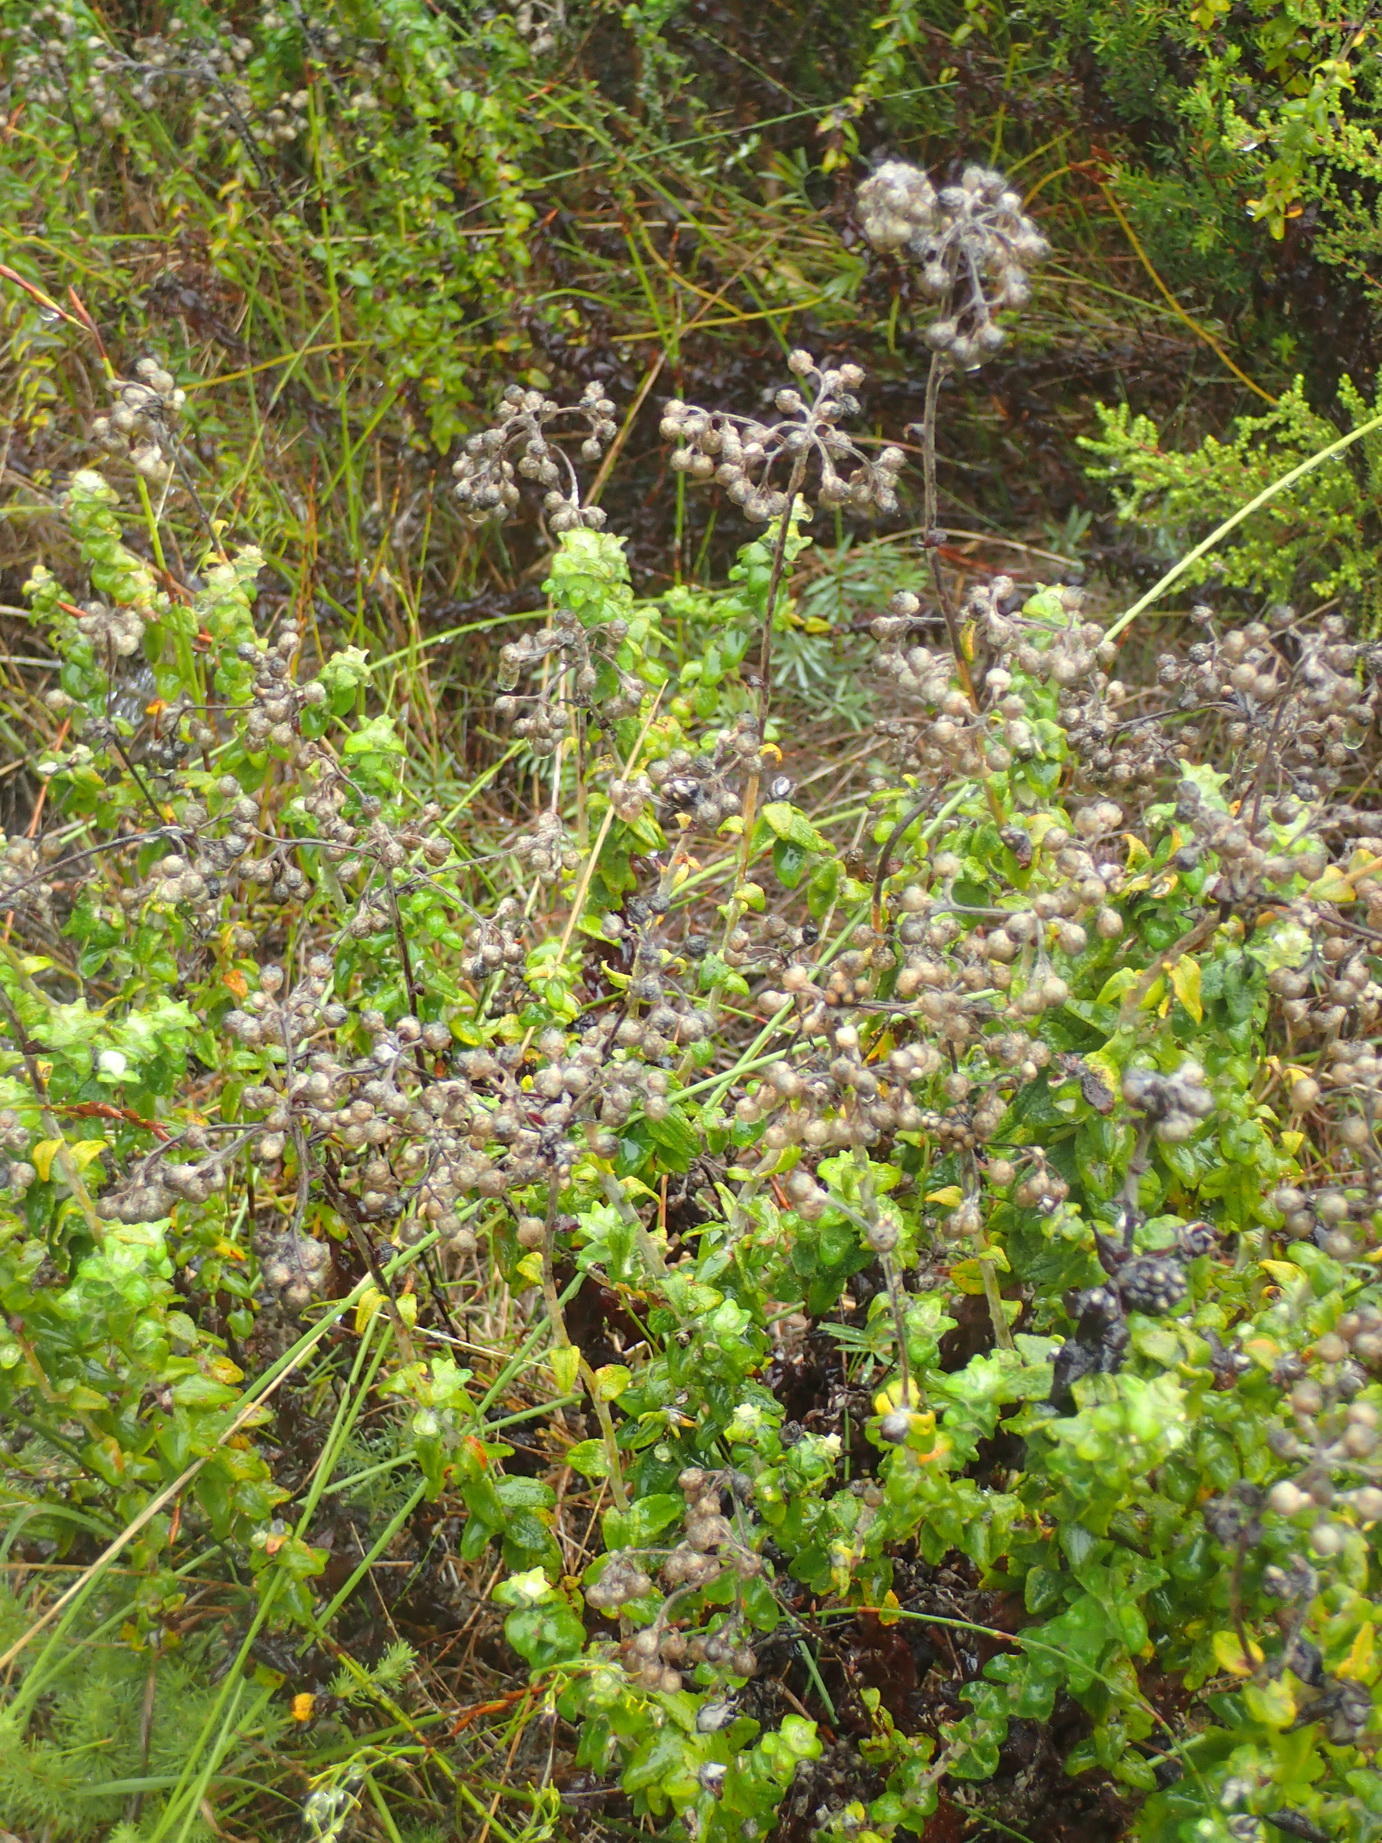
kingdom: Plantae
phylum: Tracheophyta
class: Magnoliopsida
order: Asterales
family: Asteraceae
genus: Helichrysum
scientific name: Helichrysum felinum
